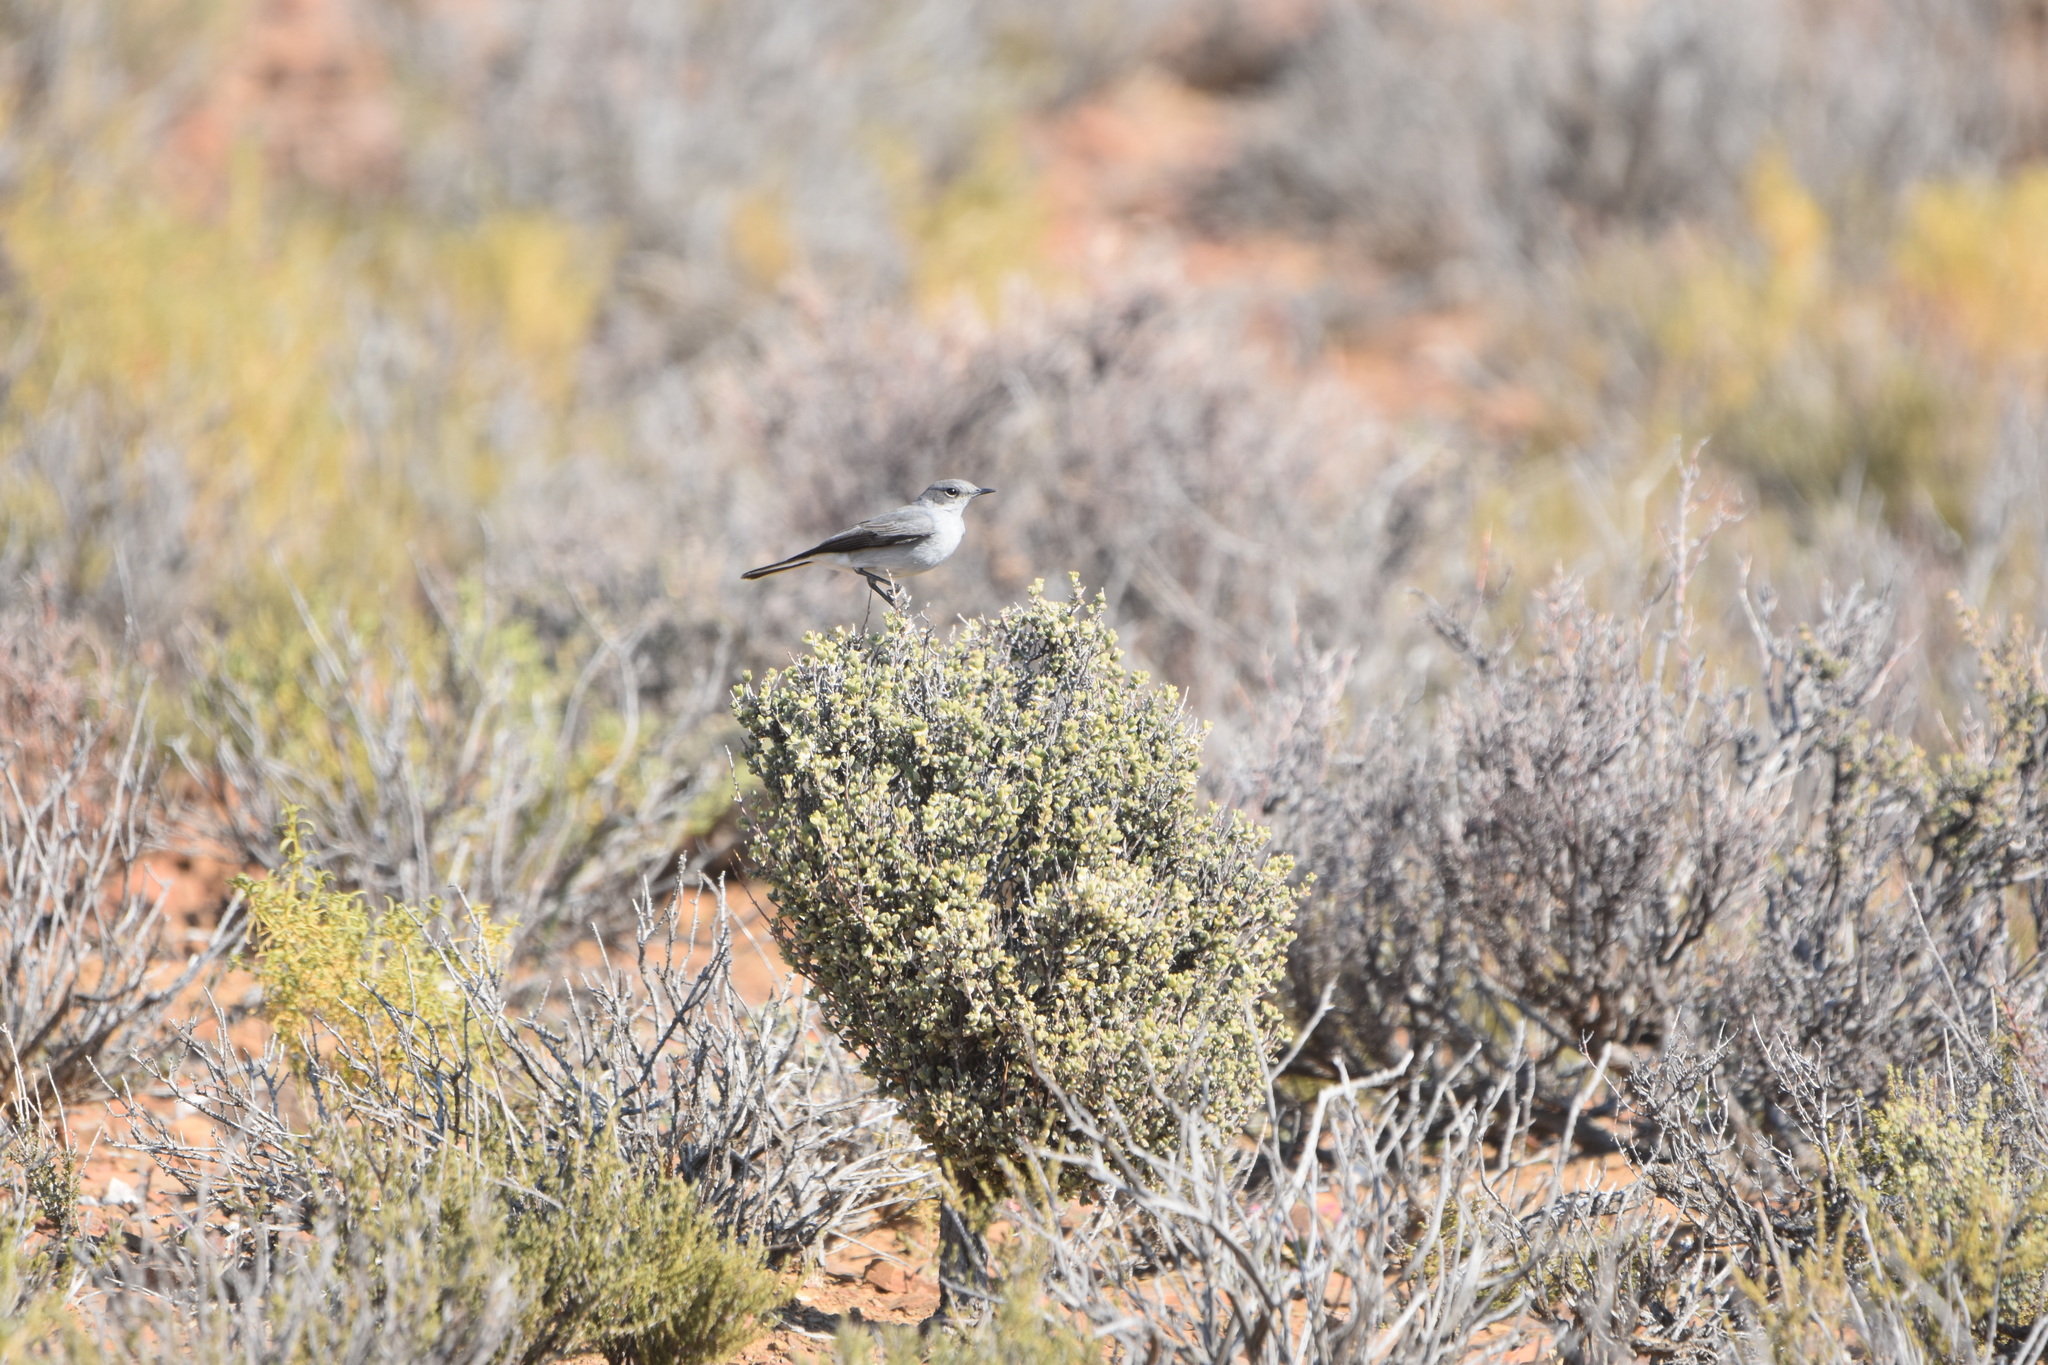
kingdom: Animalia
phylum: Chordata
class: Aves
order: Passeriformes
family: Muscicapidae
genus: Emarginata
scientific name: Emarginata schlegelii
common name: Karoo chat
